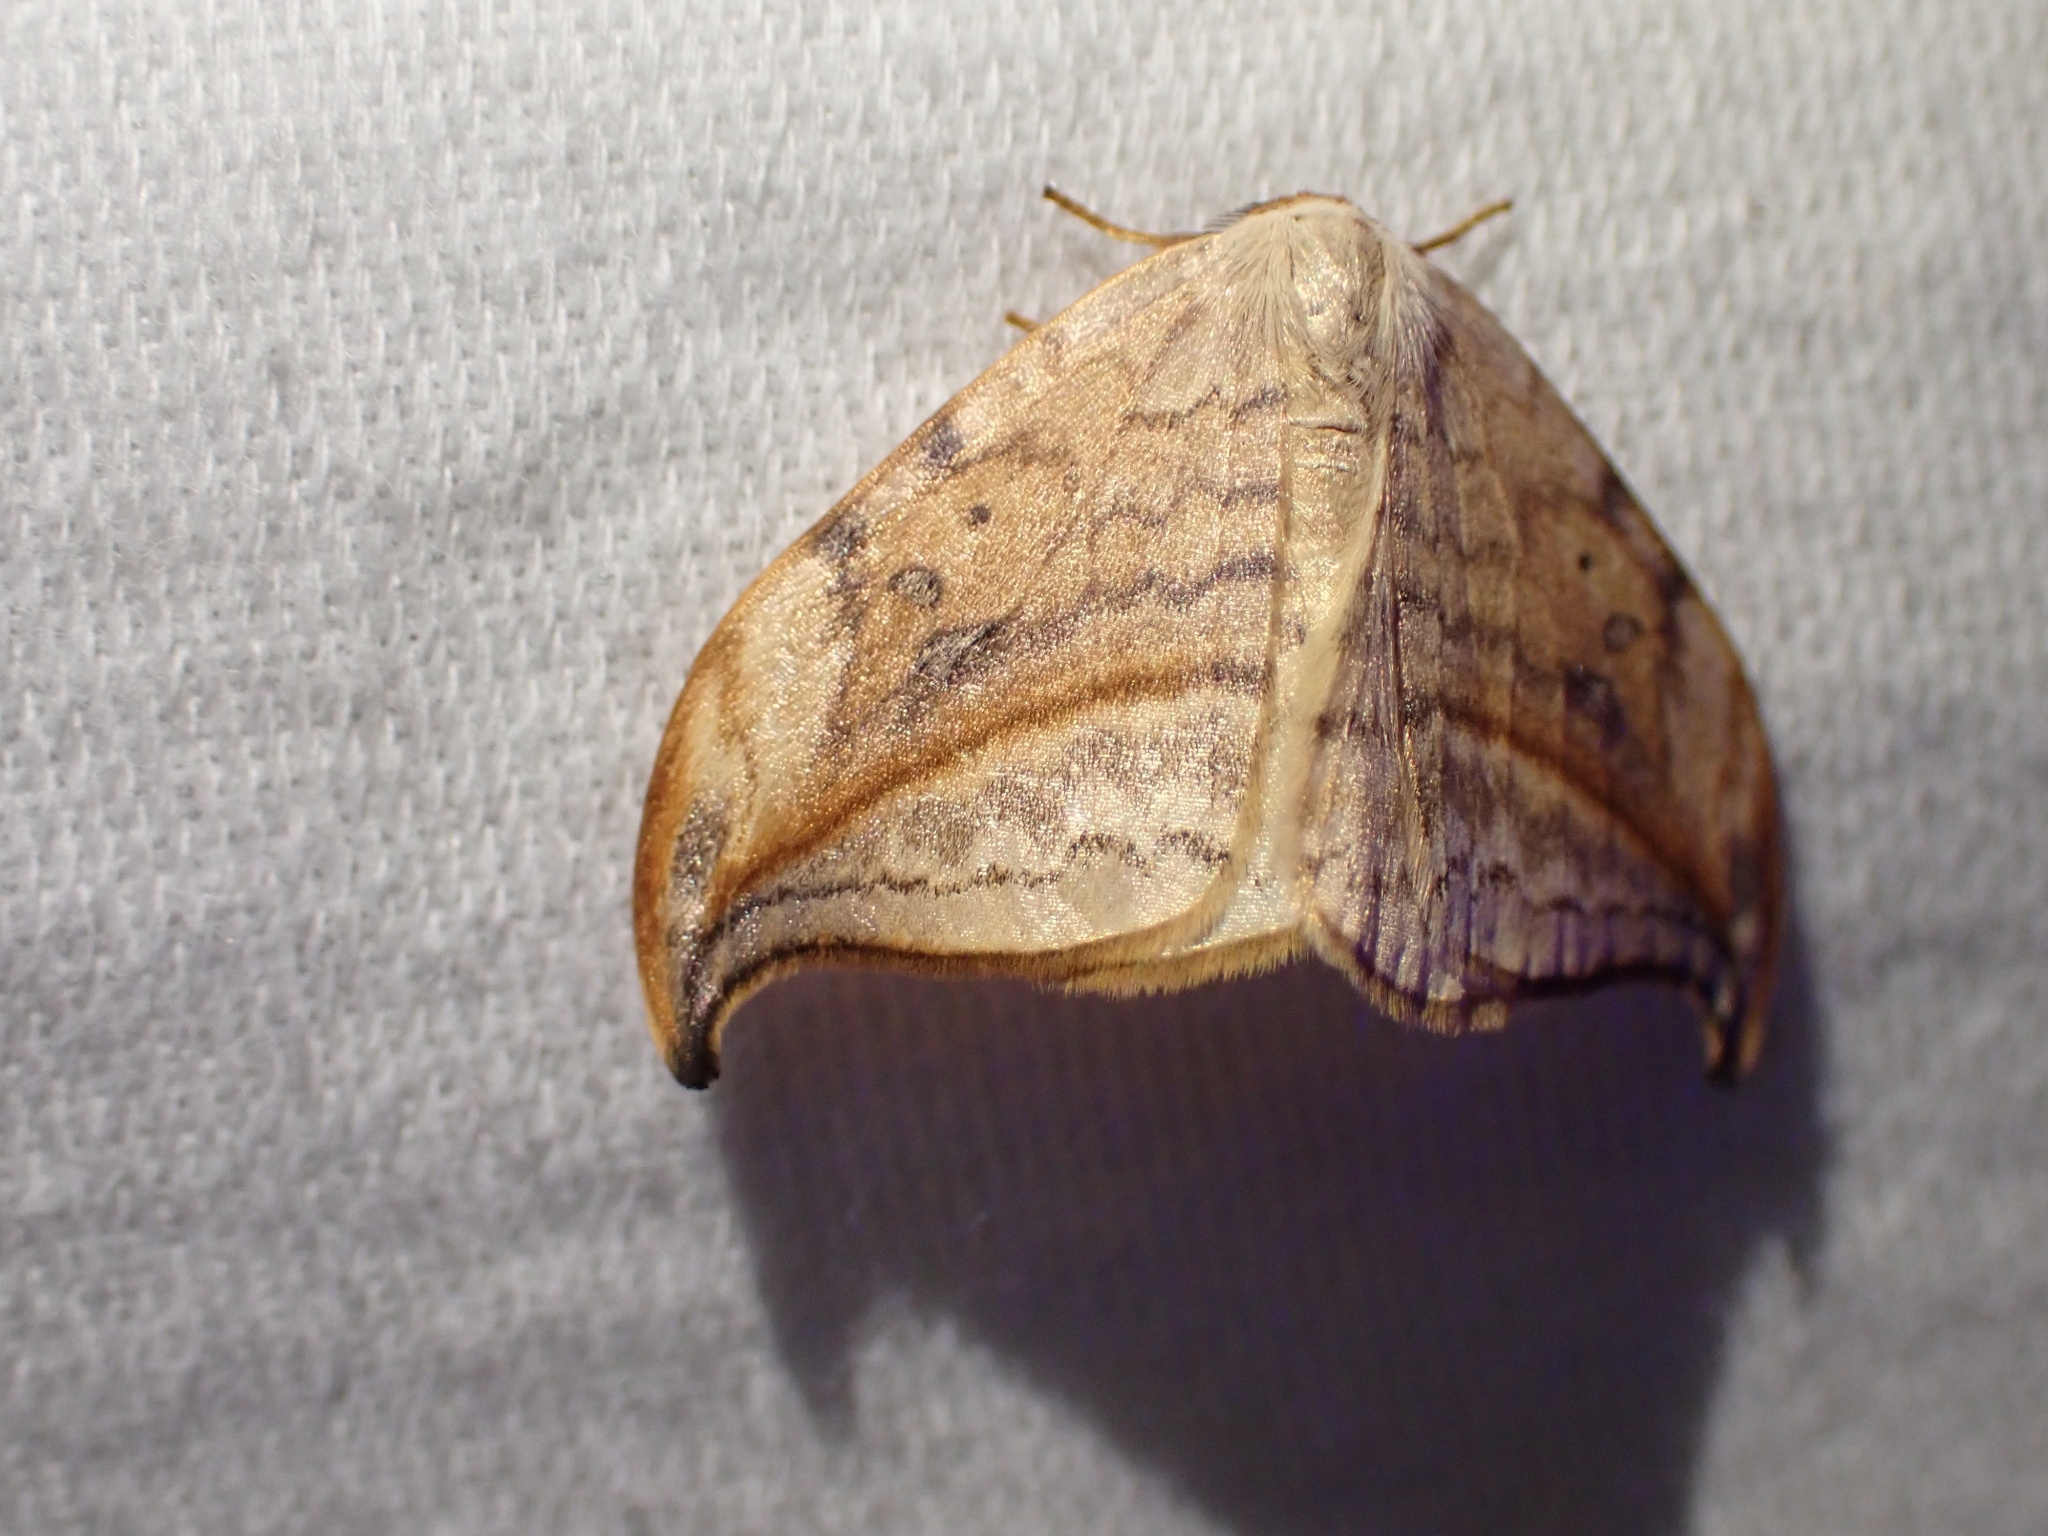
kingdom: Animalia
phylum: Arthropoda
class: Insecta
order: Lepidoptera
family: Drepanidae
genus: Drepana
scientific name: Drepana arcuata
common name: Arched hooktip moth
